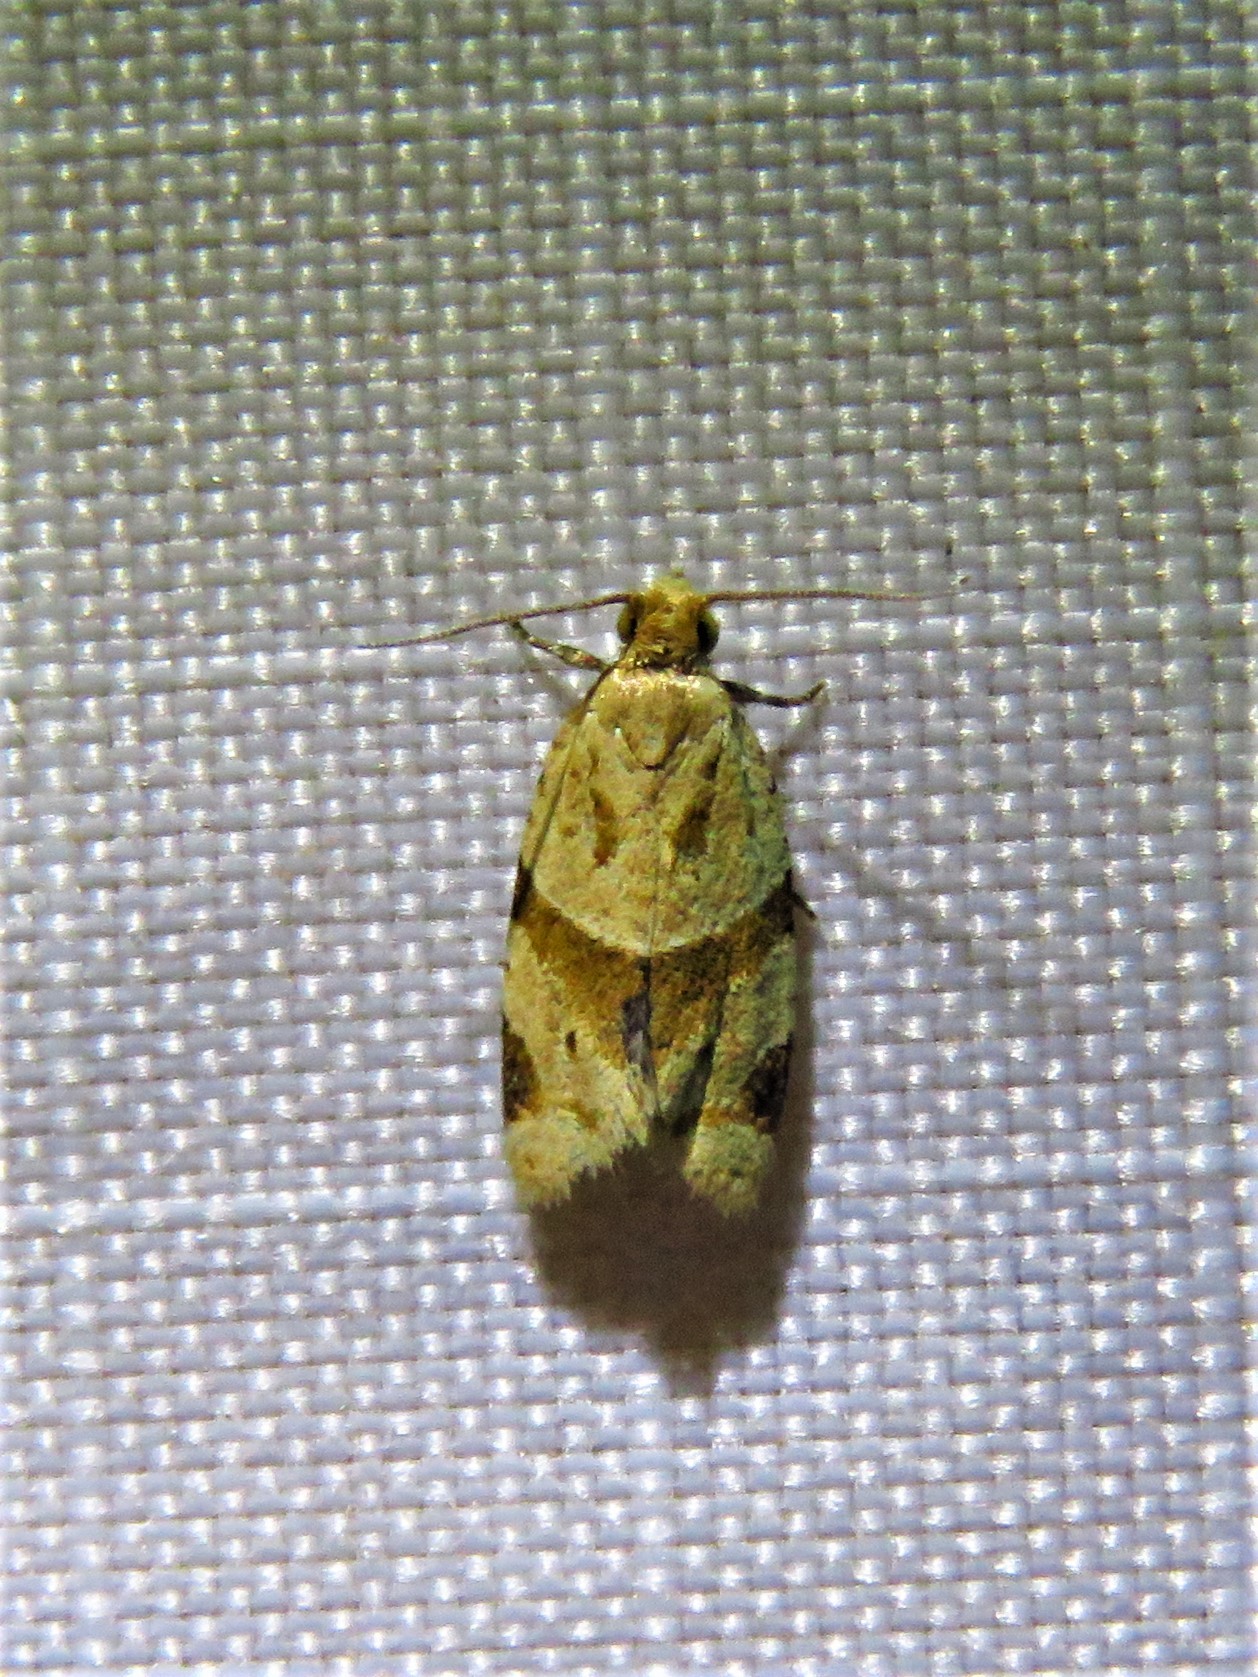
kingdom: Animalia
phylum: Arthropoda
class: Insecta
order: Lepidoptera
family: Tortricidae
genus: Clepsis
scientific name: Clepsis peritana
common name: Garden tortrix
